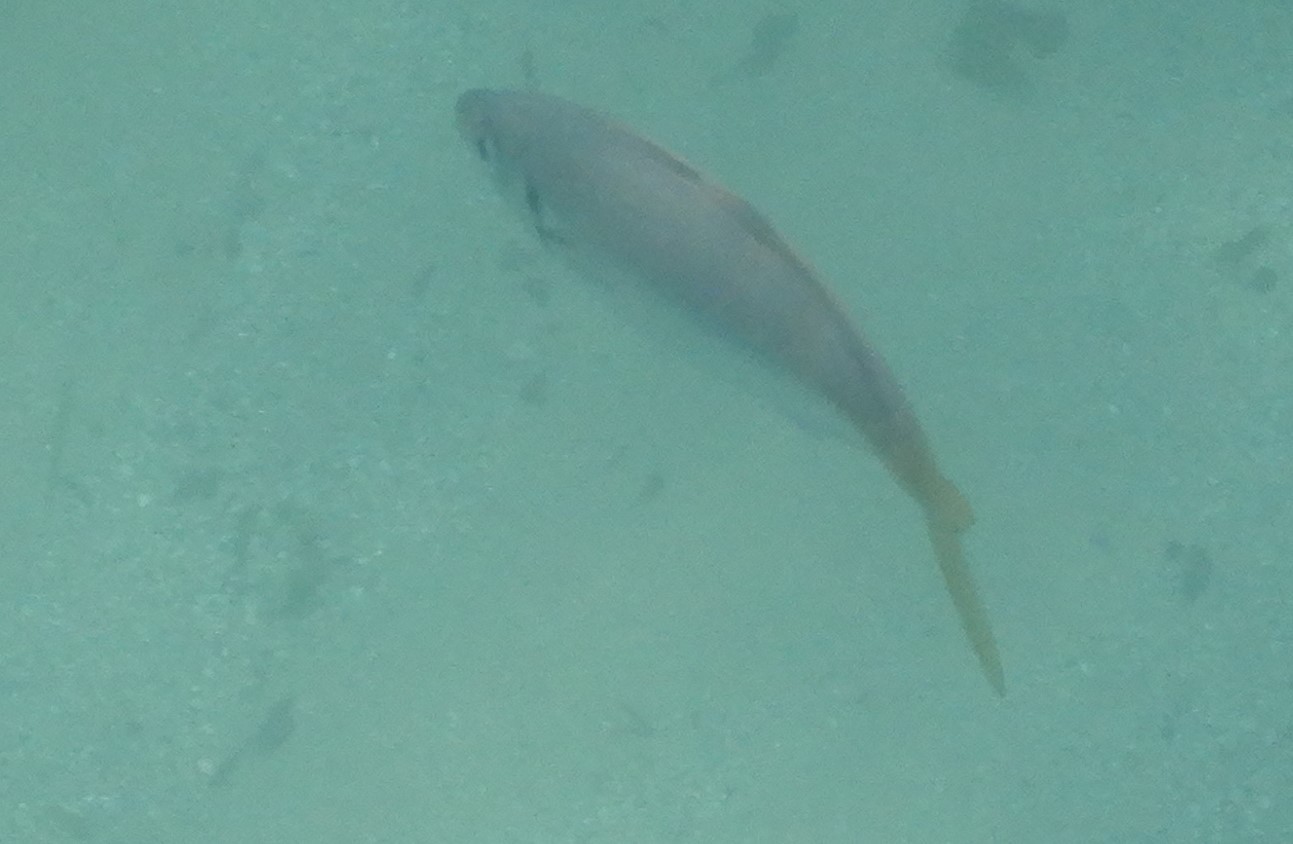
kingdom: Animalia
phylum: Chordata
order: Perciformes
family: Carangidae
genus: Trachurus
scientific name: Trachurus novaezelandiae
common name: Yellowtail horse mackerel
